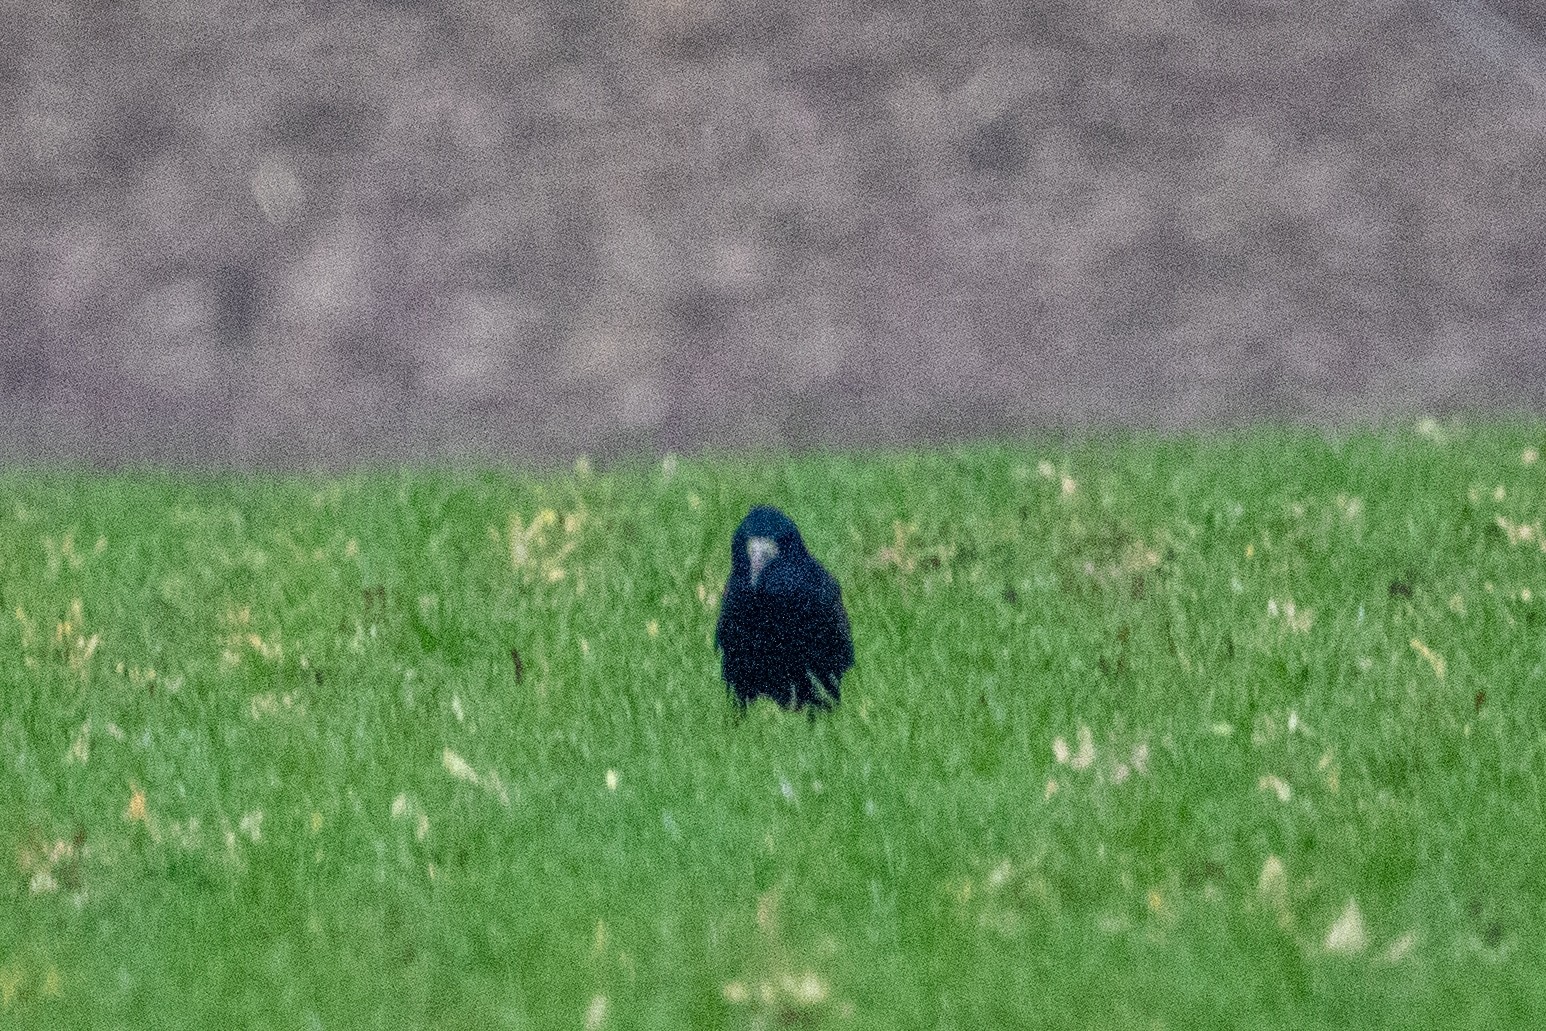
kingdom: Animalia
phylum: Chordata
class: Aves
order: Passeriformes
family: Corvidae
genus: Corvus
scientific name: Corvus frugilegus
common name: Rook
